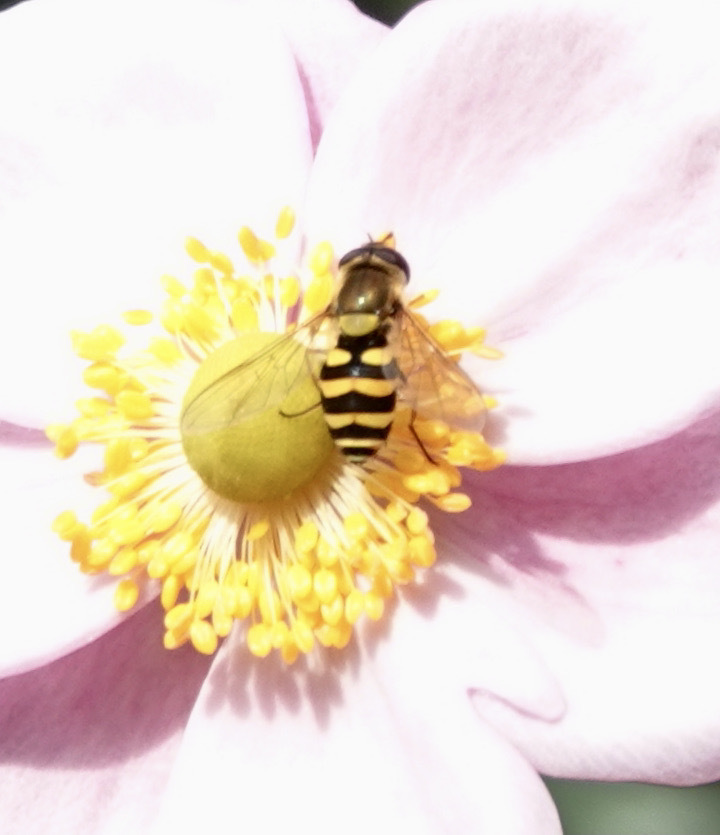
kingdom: Animalia
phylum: Arthropoda
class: Insecta
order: Diptera
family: Syrphidae
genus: Syrphus
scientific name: Syrphus
